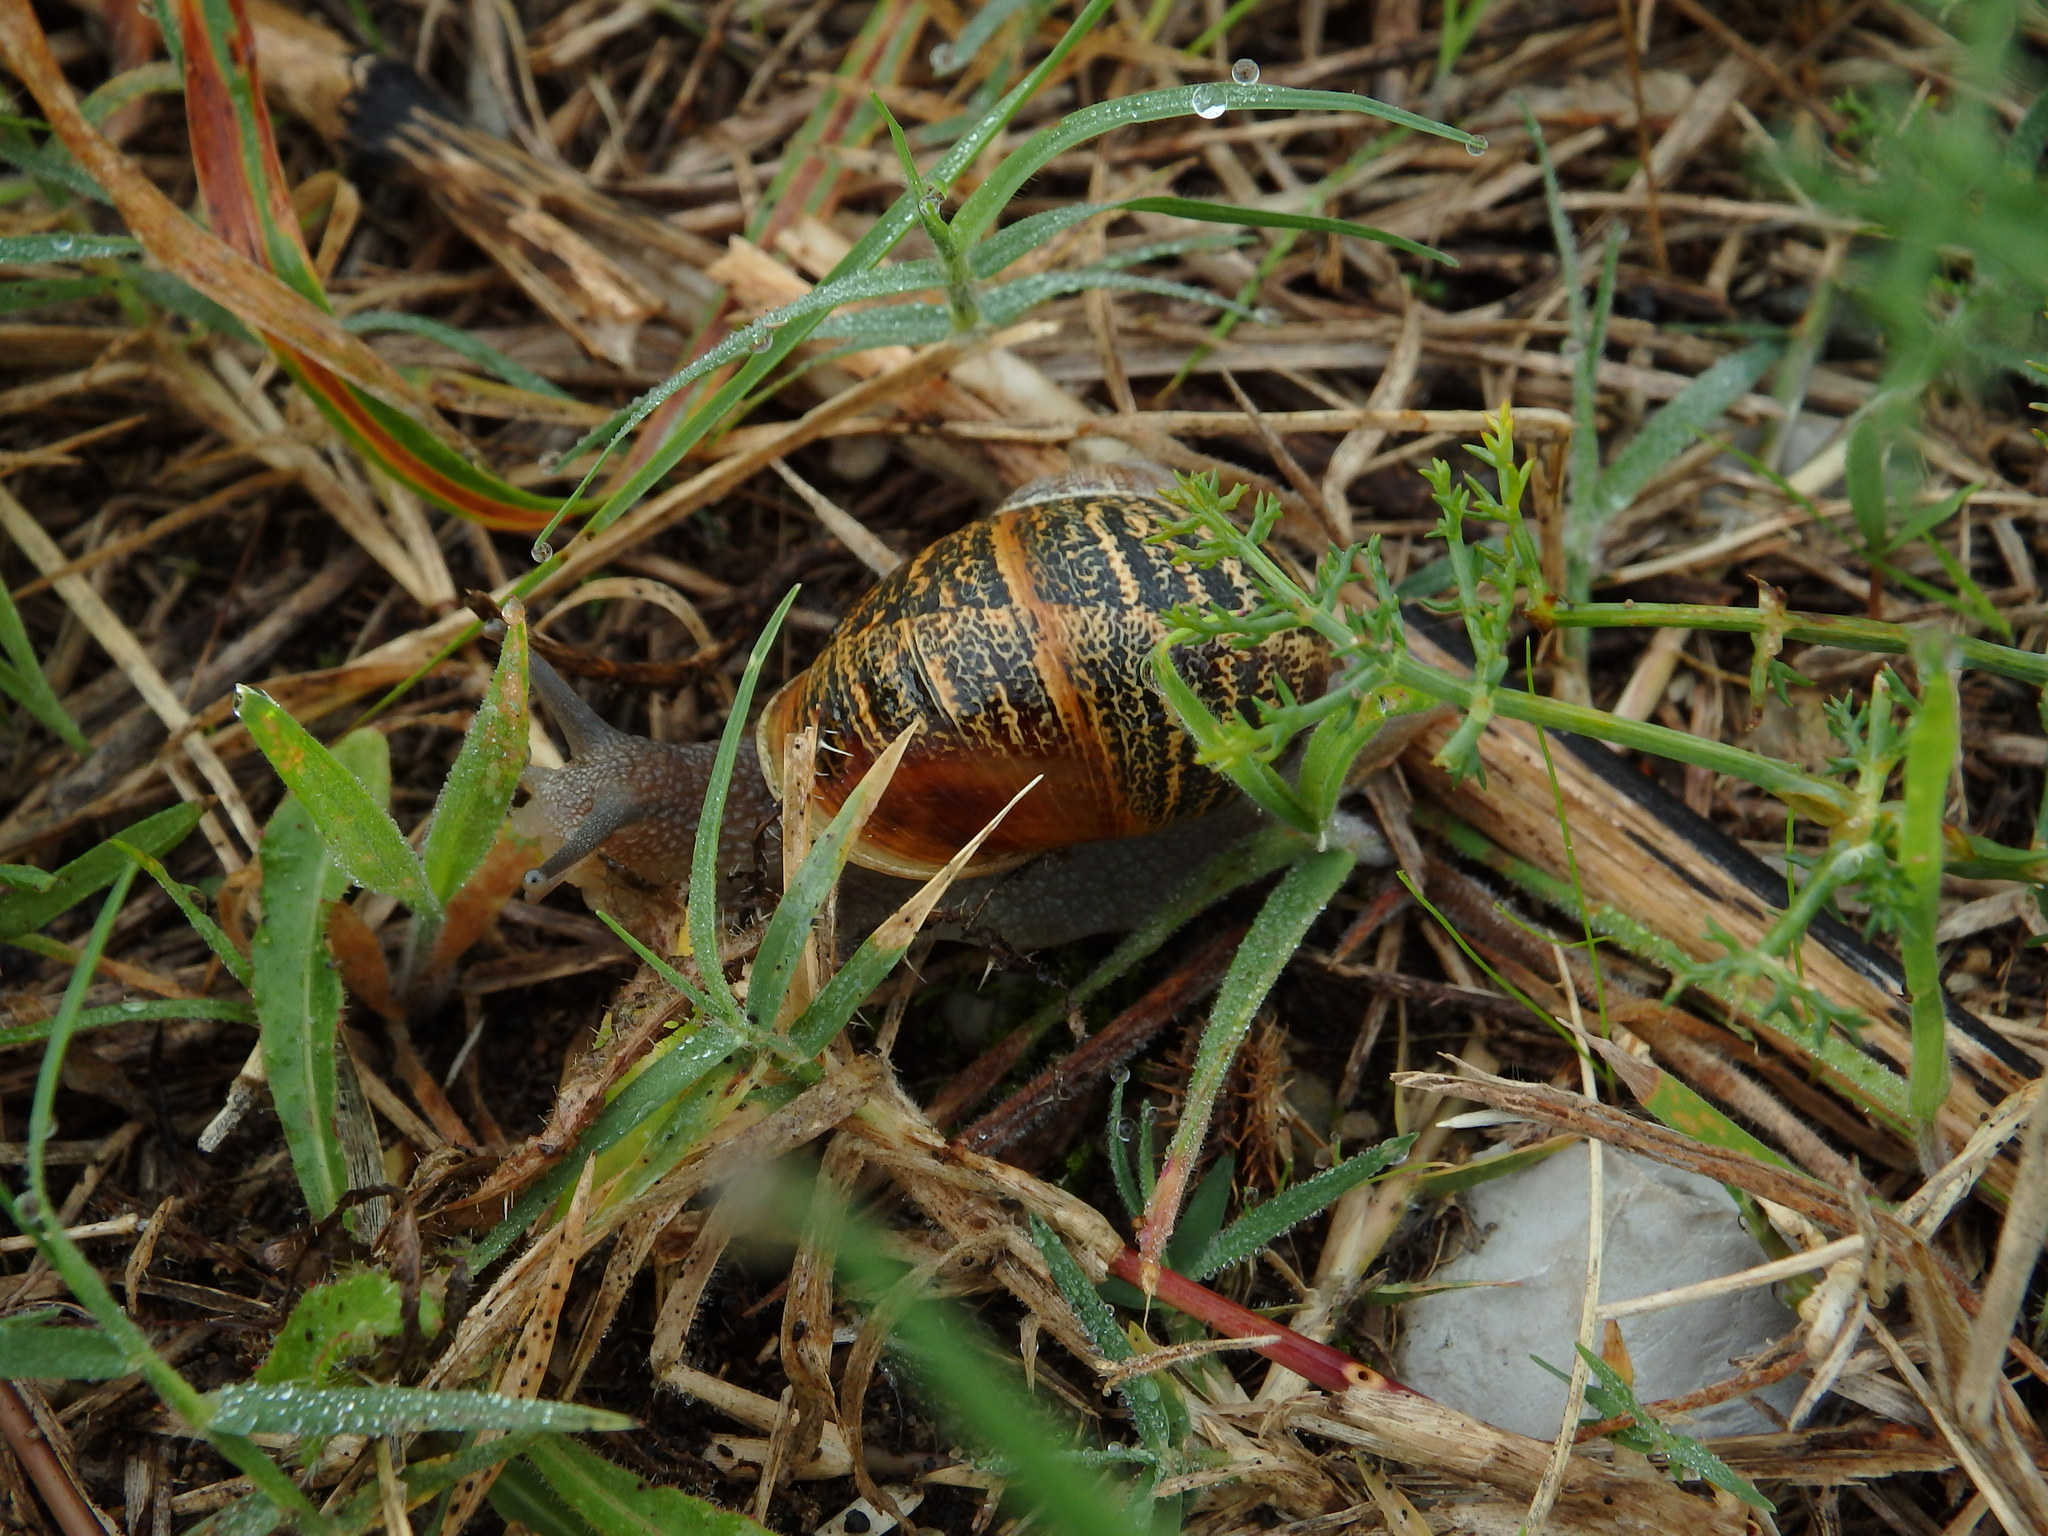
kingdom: Animalia
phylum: Mollusca
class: Gastropoda
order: Stylommatophora
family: Helicidae
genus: Cornu
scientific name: Cornu aspersum
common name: Brown garden snail
